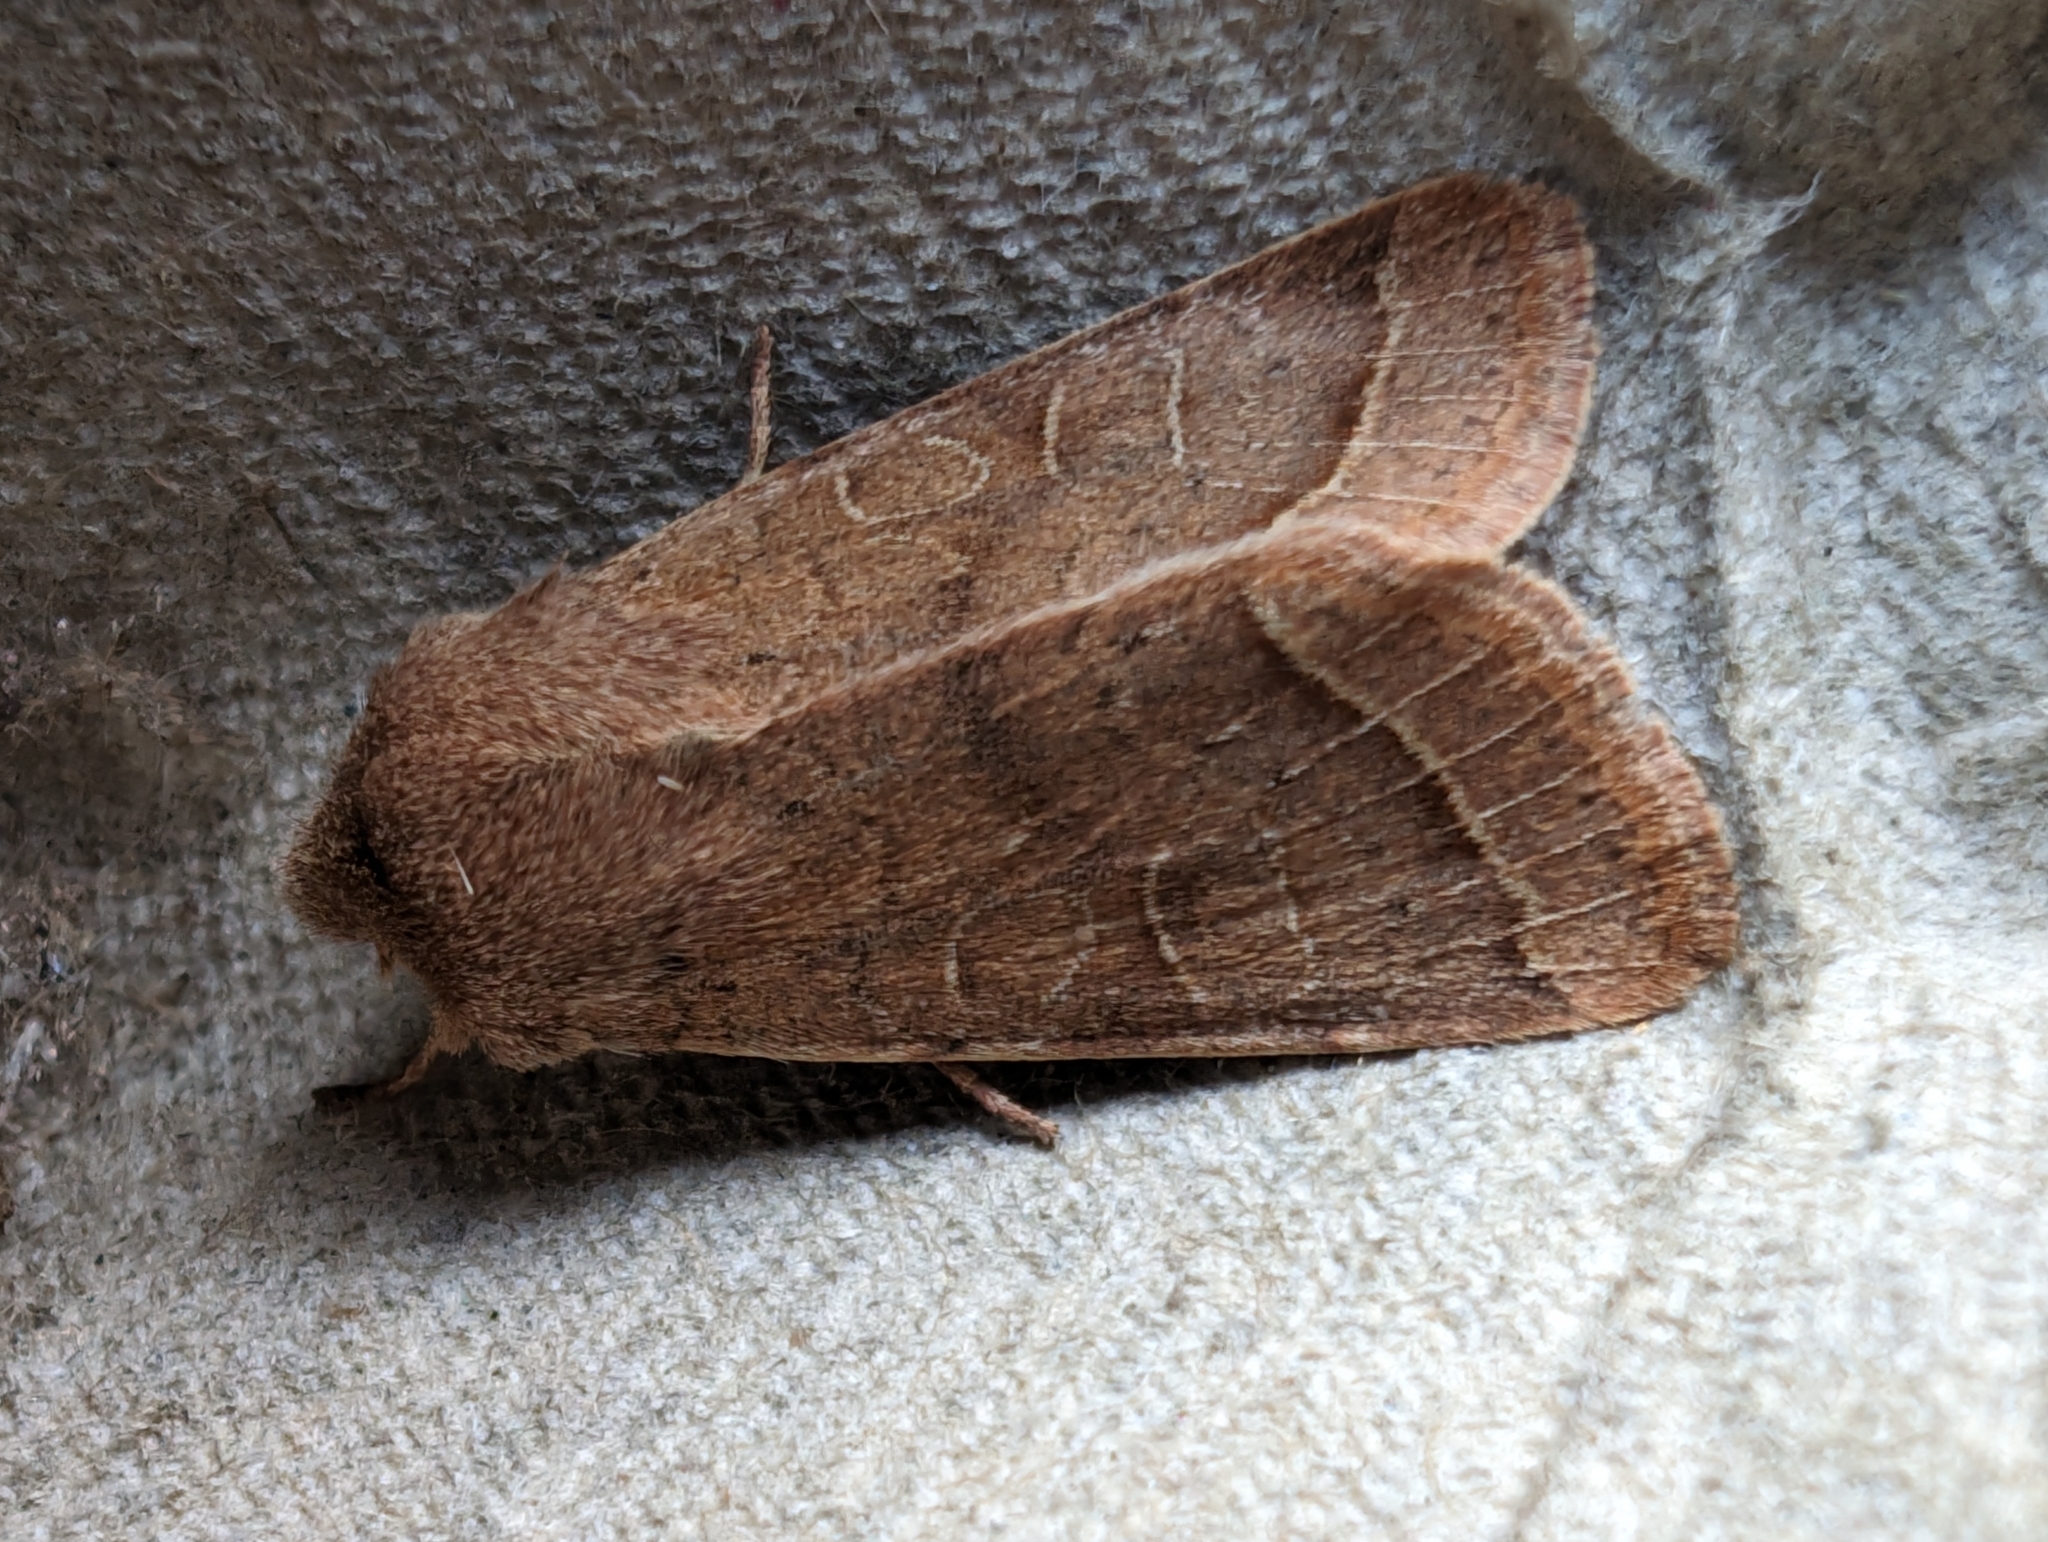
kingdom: Animalia
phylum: Arthropoda
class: Insecta
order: Lepidoptera
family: Noctuidae
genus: Orthosia
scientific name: Orthosia cerasi
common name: Common quaker
